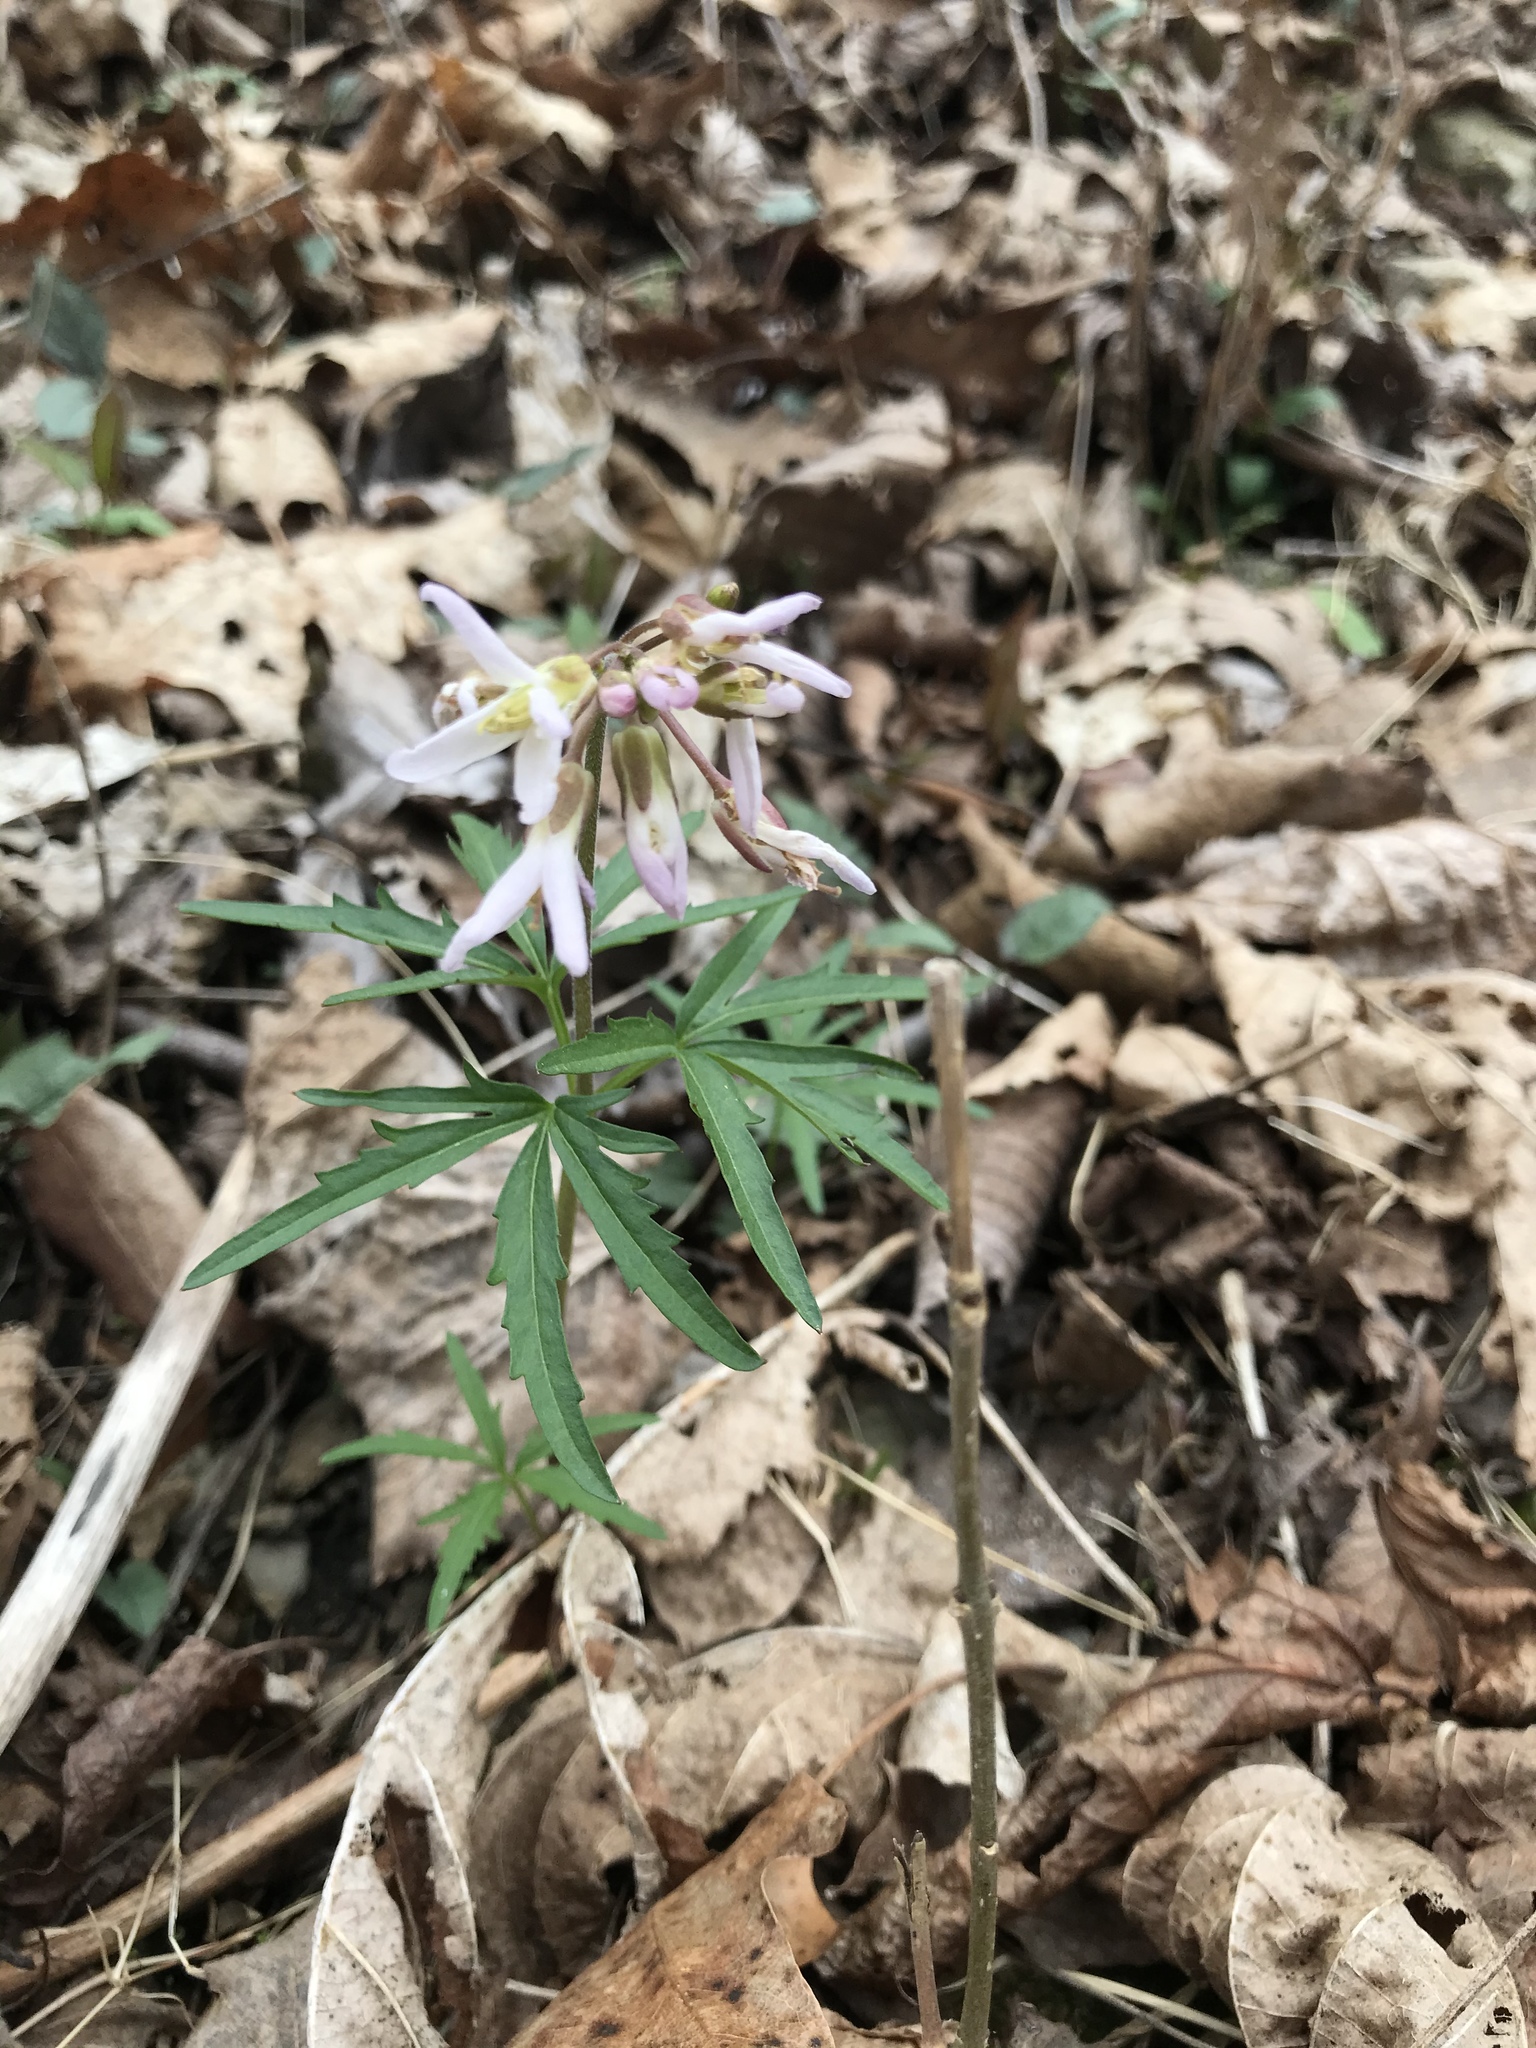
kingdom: Plantae
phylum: Tracheophyta
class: Magnoliopsida
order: Brassicales
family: Brassicaceae
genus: Cardamine
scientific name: Cardamine concatenata
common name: Cut-leaf toothcup
